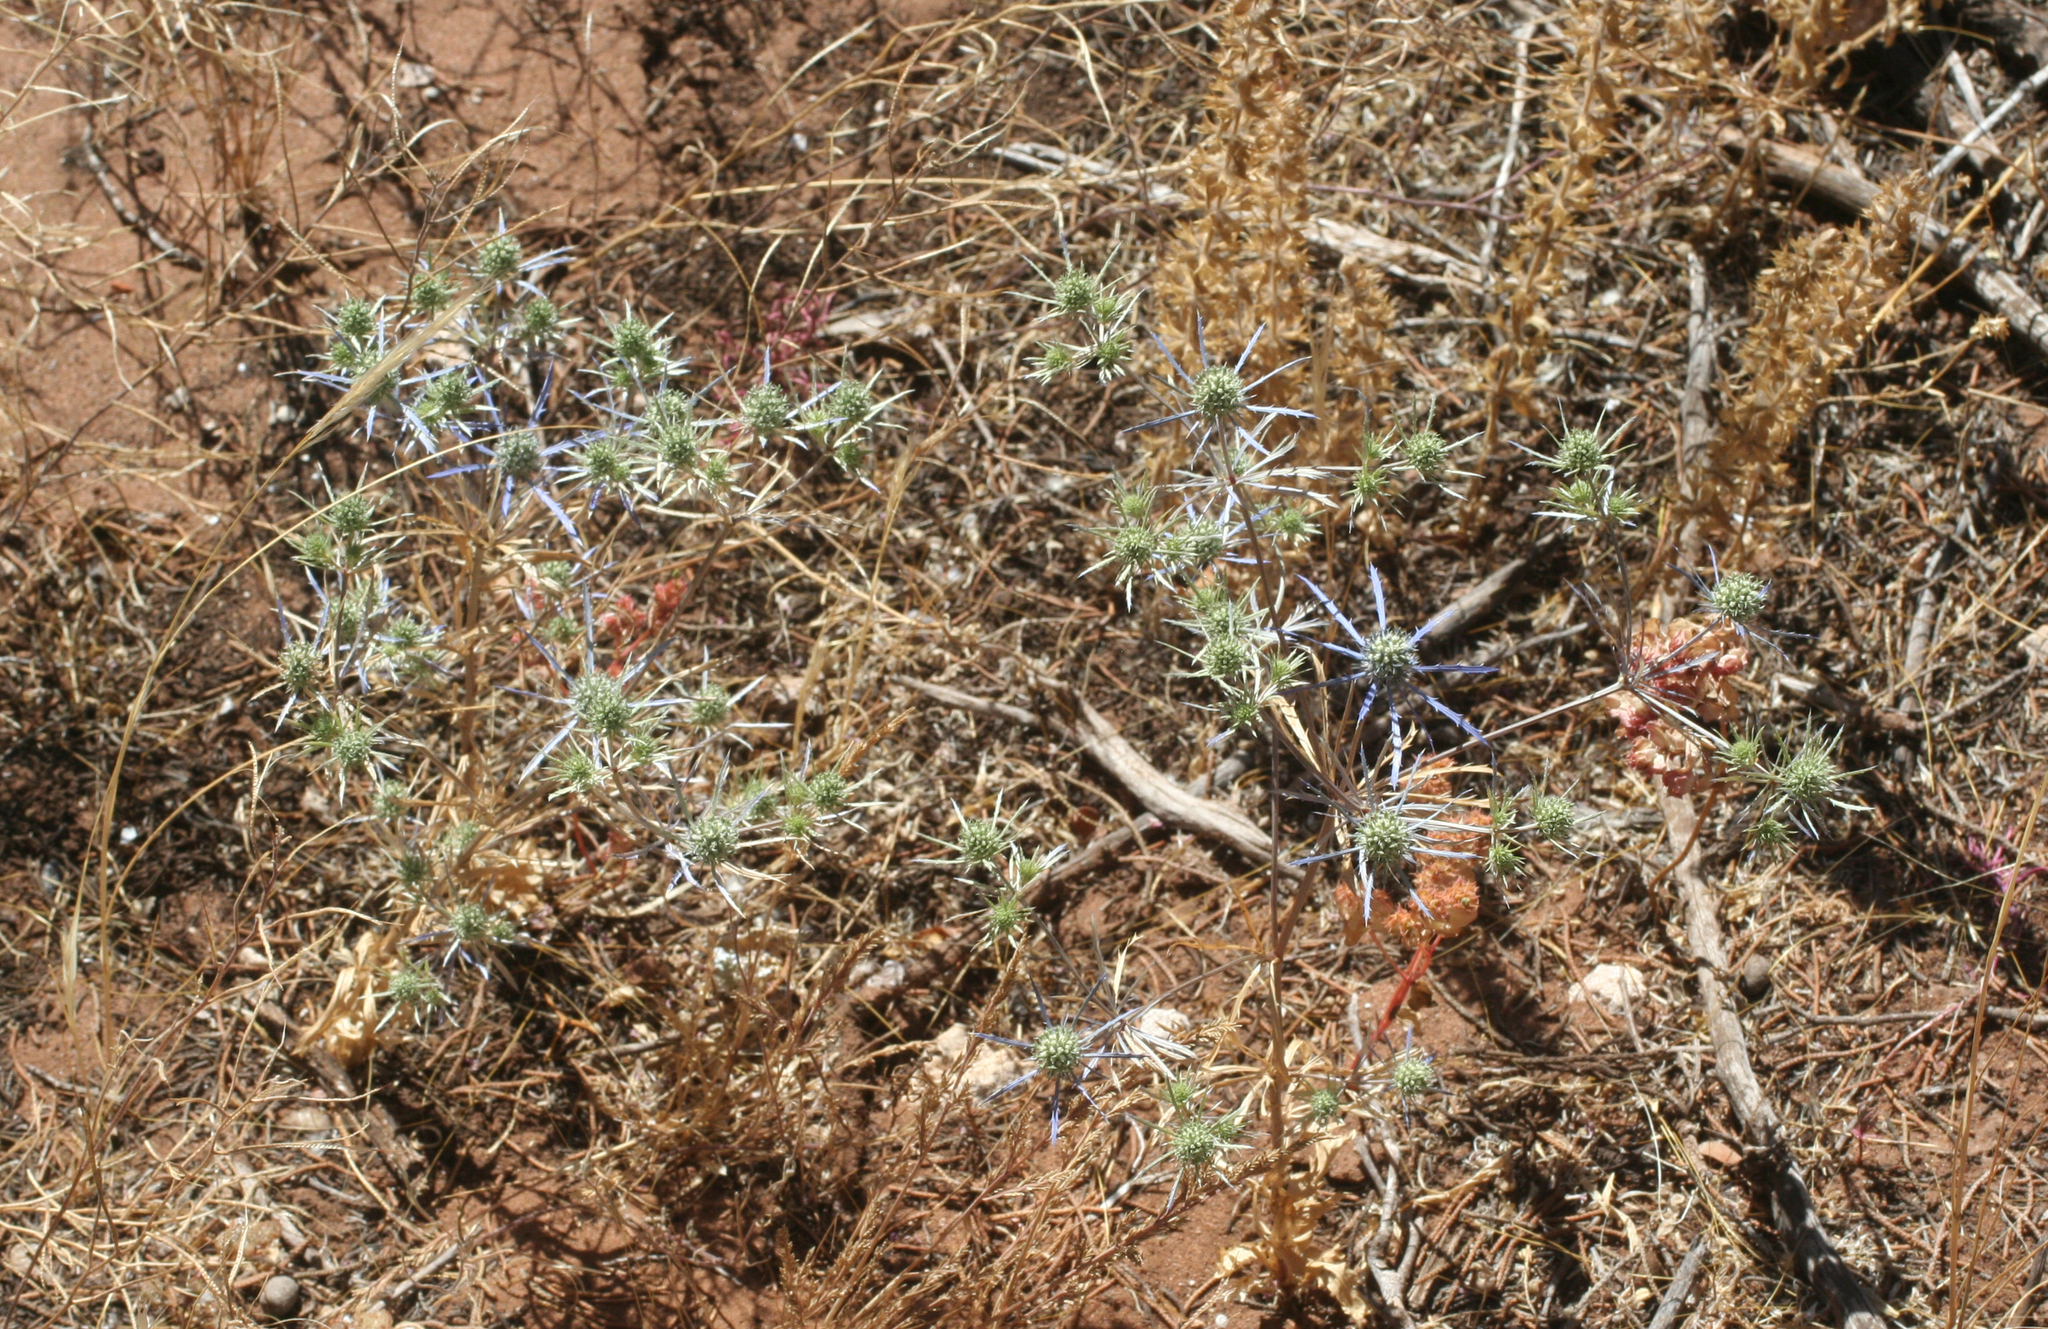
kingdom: Plantae
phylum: Tracheophyta
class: Magnoliopsida
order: Apiales
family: Apiaceae
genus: Eryngium
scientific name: Eryngium tenue
